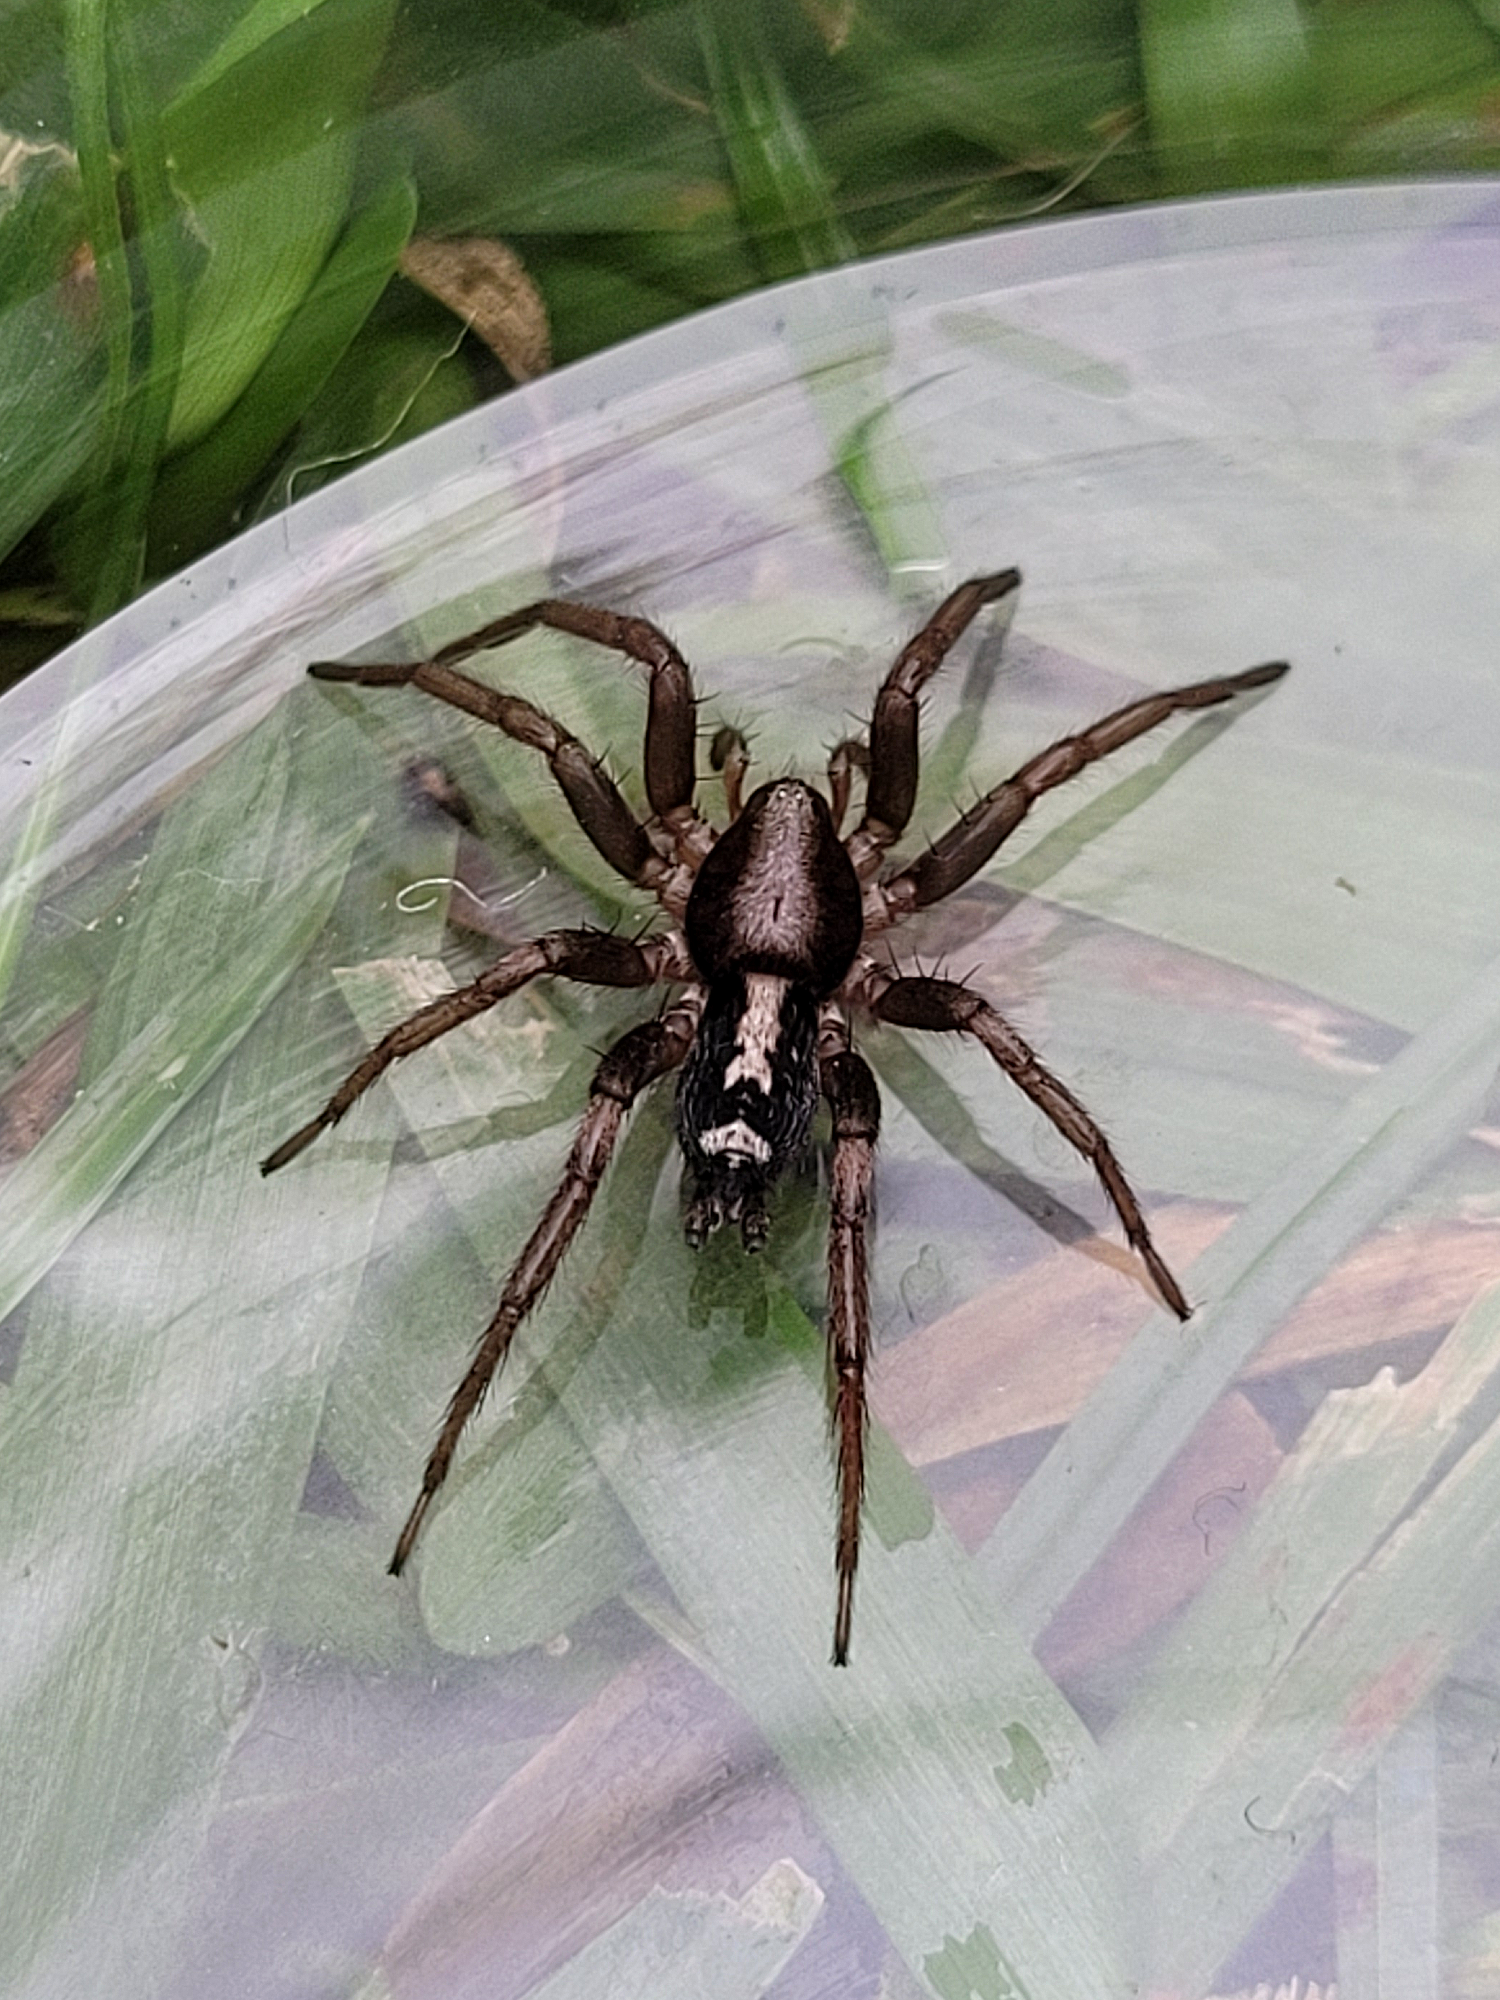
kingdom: Animalia
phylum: Arthropoda
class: Arachnida
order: Araneae
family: Gnaphosidae
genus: Herpyllus
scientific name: Herpyllus ecclesiasticus
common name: Eastern parson spider
